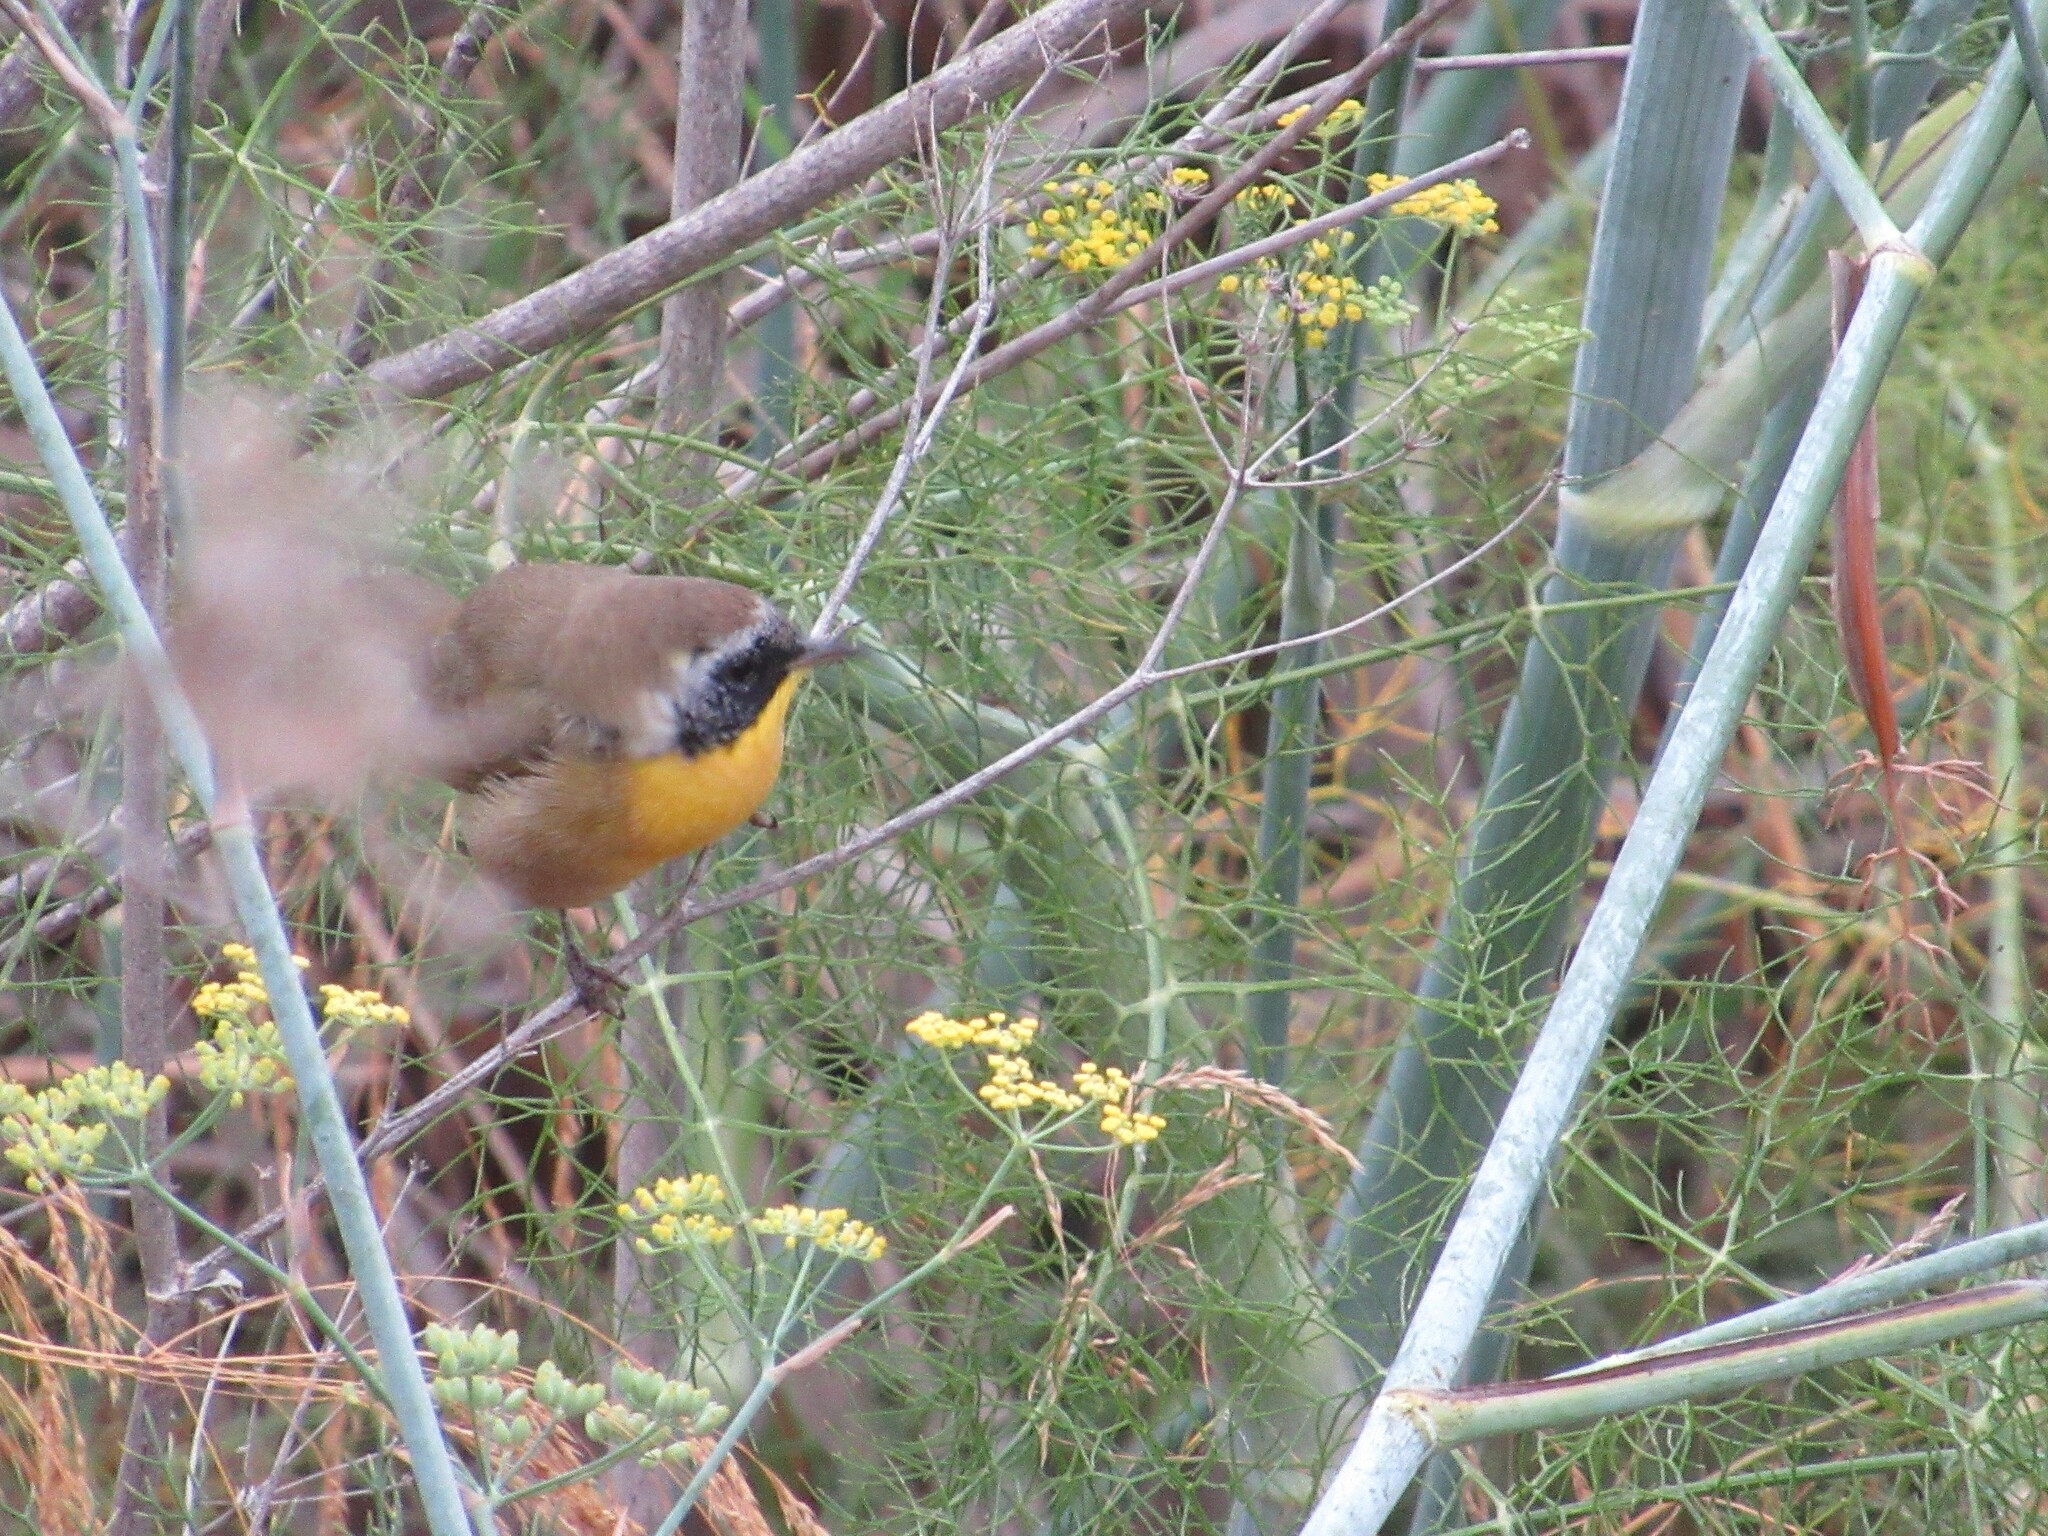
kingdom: Animalia
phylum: Chordata
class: Aves
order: Passeriformes
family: Parulidae
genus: Geothlypis
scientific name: Geothlypis trichas
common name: Common yellowthroat
